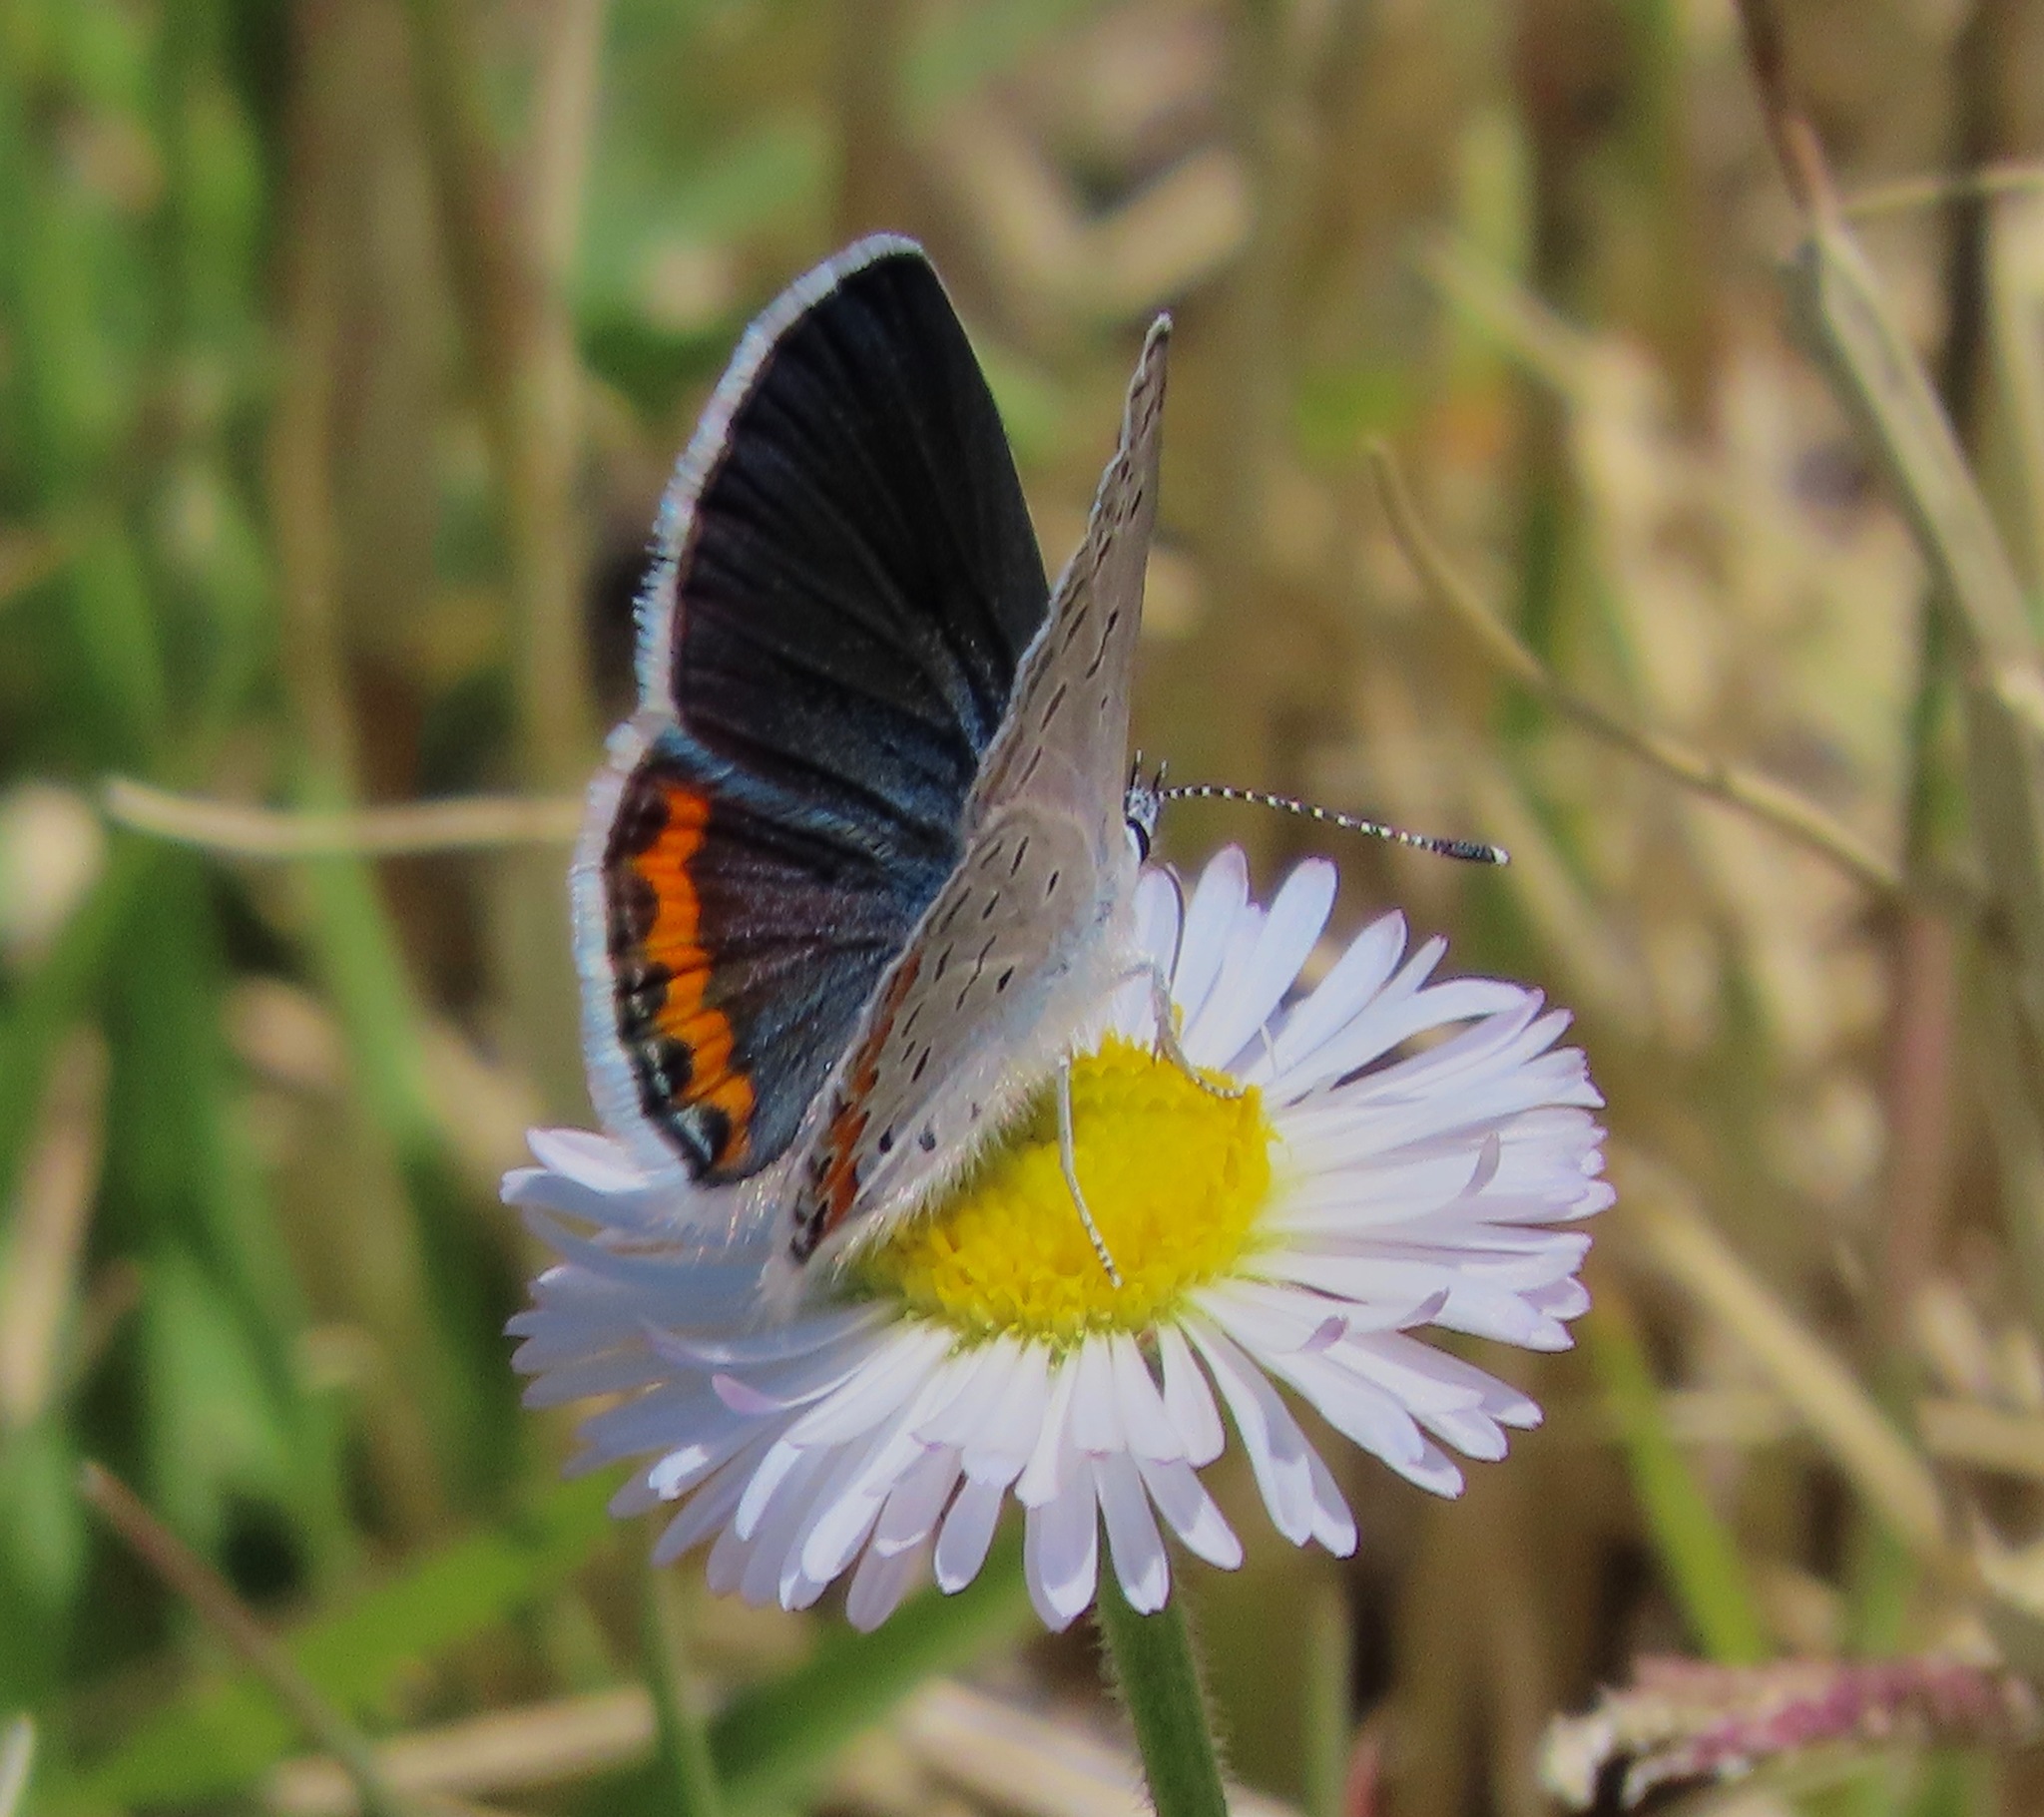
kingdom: Animalia
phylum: Arthropoda
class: Insecta
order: Lepidoptera
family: Lycaenidae
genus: Icaricia
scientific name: Icaricia lupini
